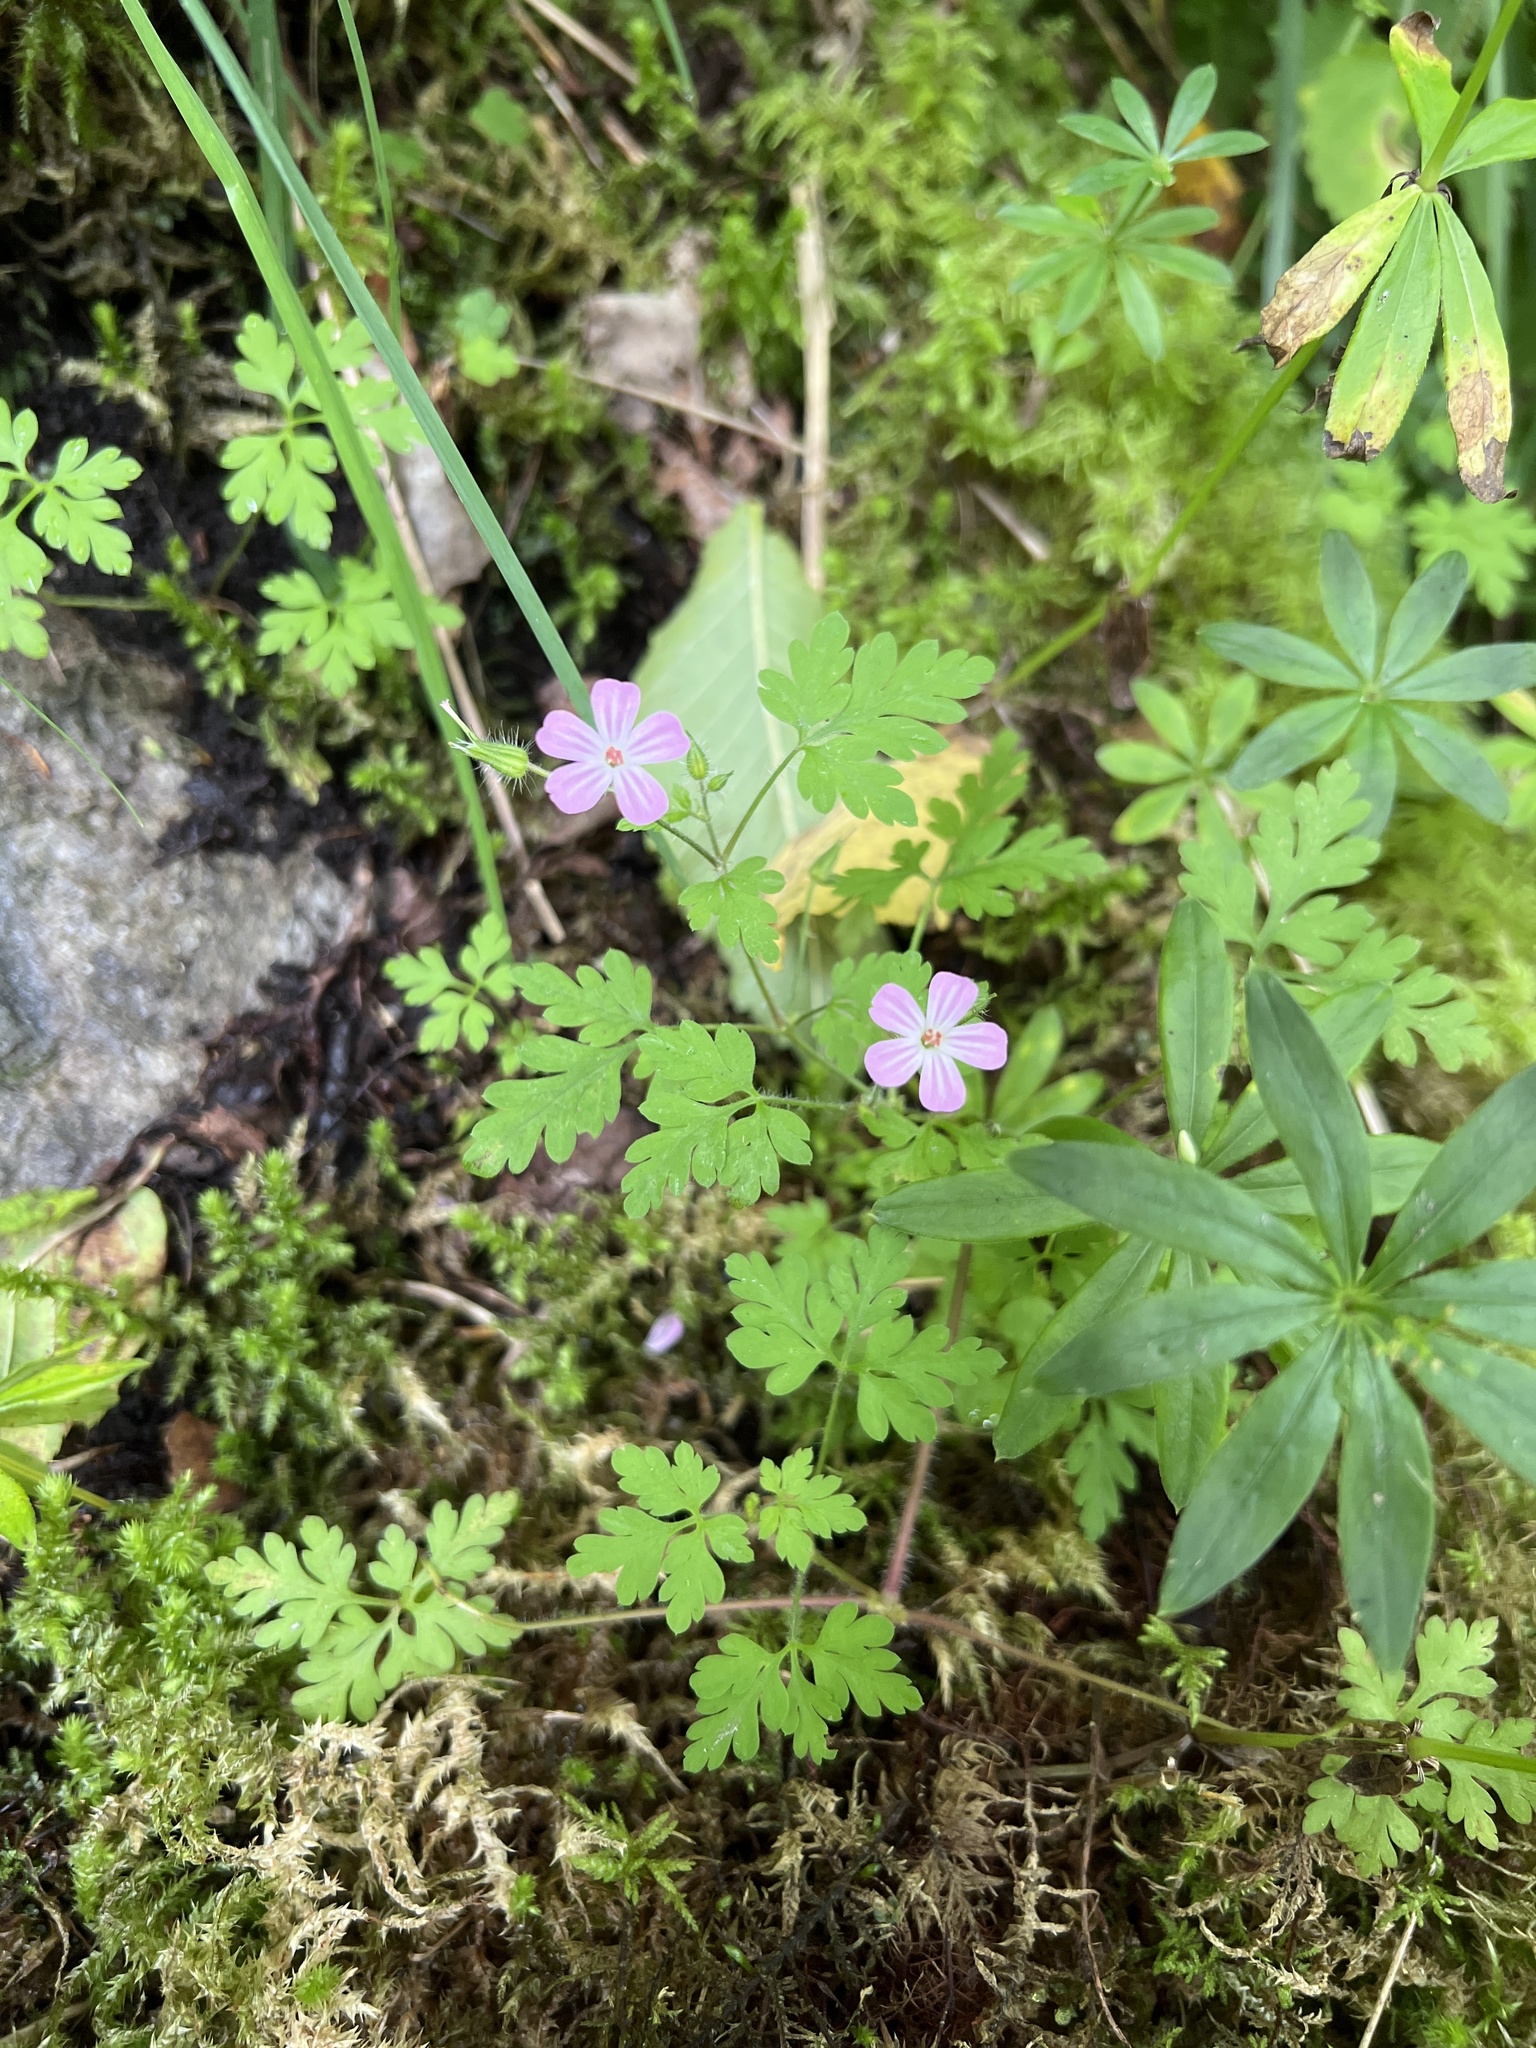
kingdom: Plantae
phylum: Tracheophyta
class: Magnoliopsida
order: Geraniales
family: Geraniaceae
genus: Geranium
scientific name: Geranium robertianum
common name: Herb-robert
